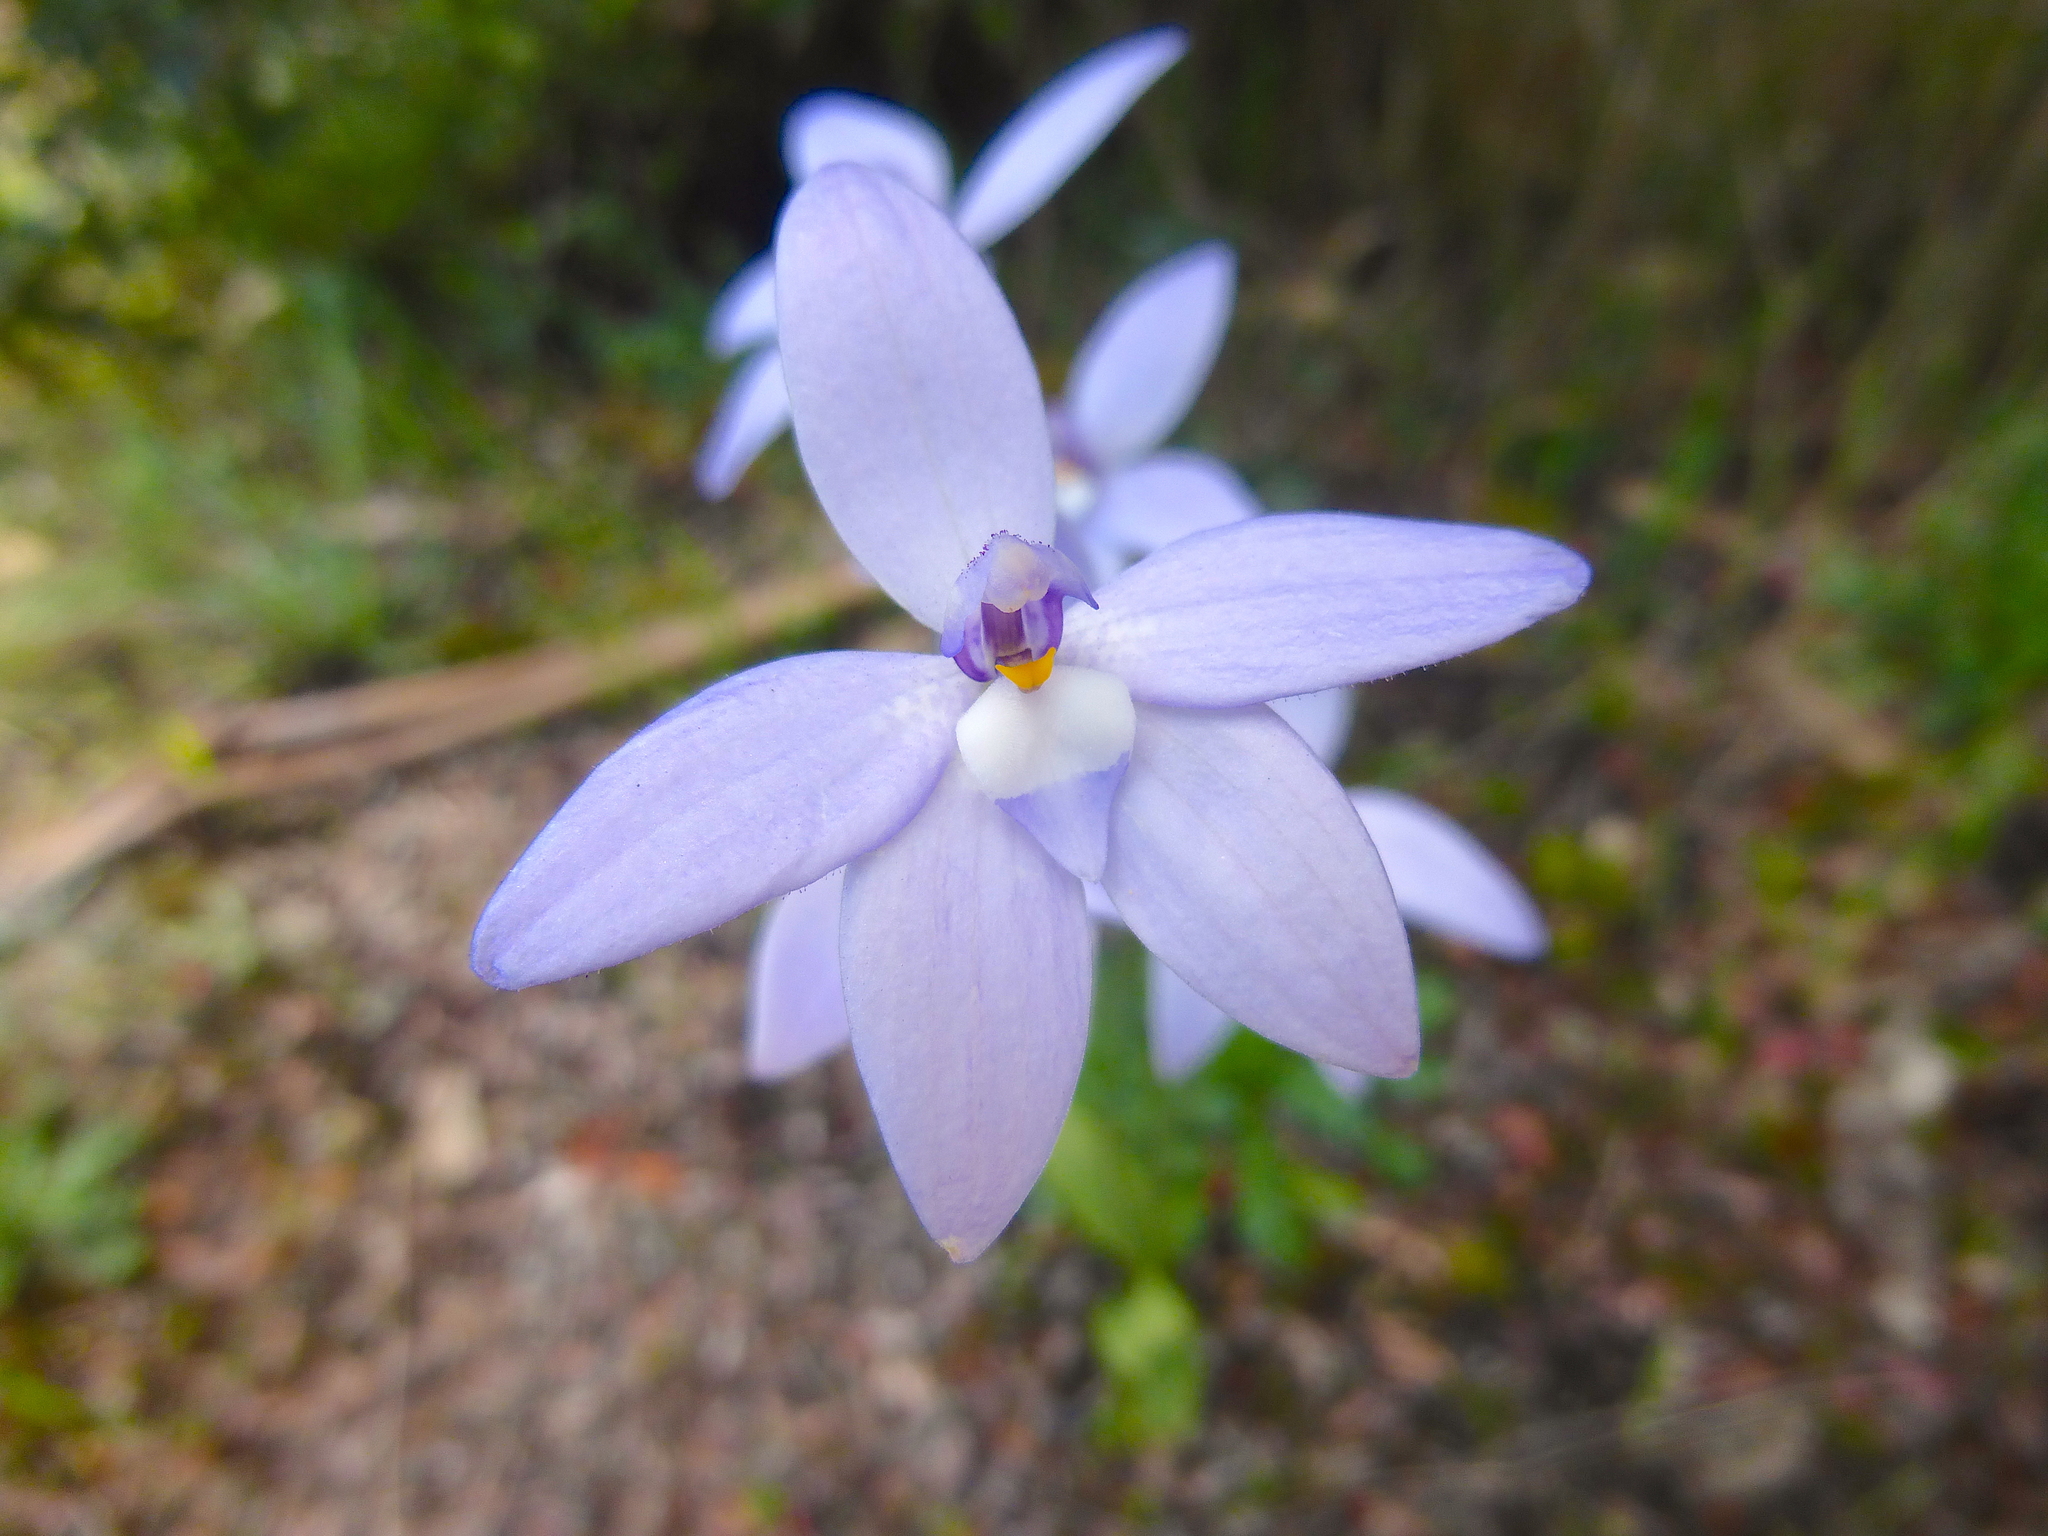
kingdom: Plantae
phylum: Tracheophyta
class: Liliopsida
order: Asparagales
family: Orchidaceae
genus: Caladenia
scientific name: Caladenia major
